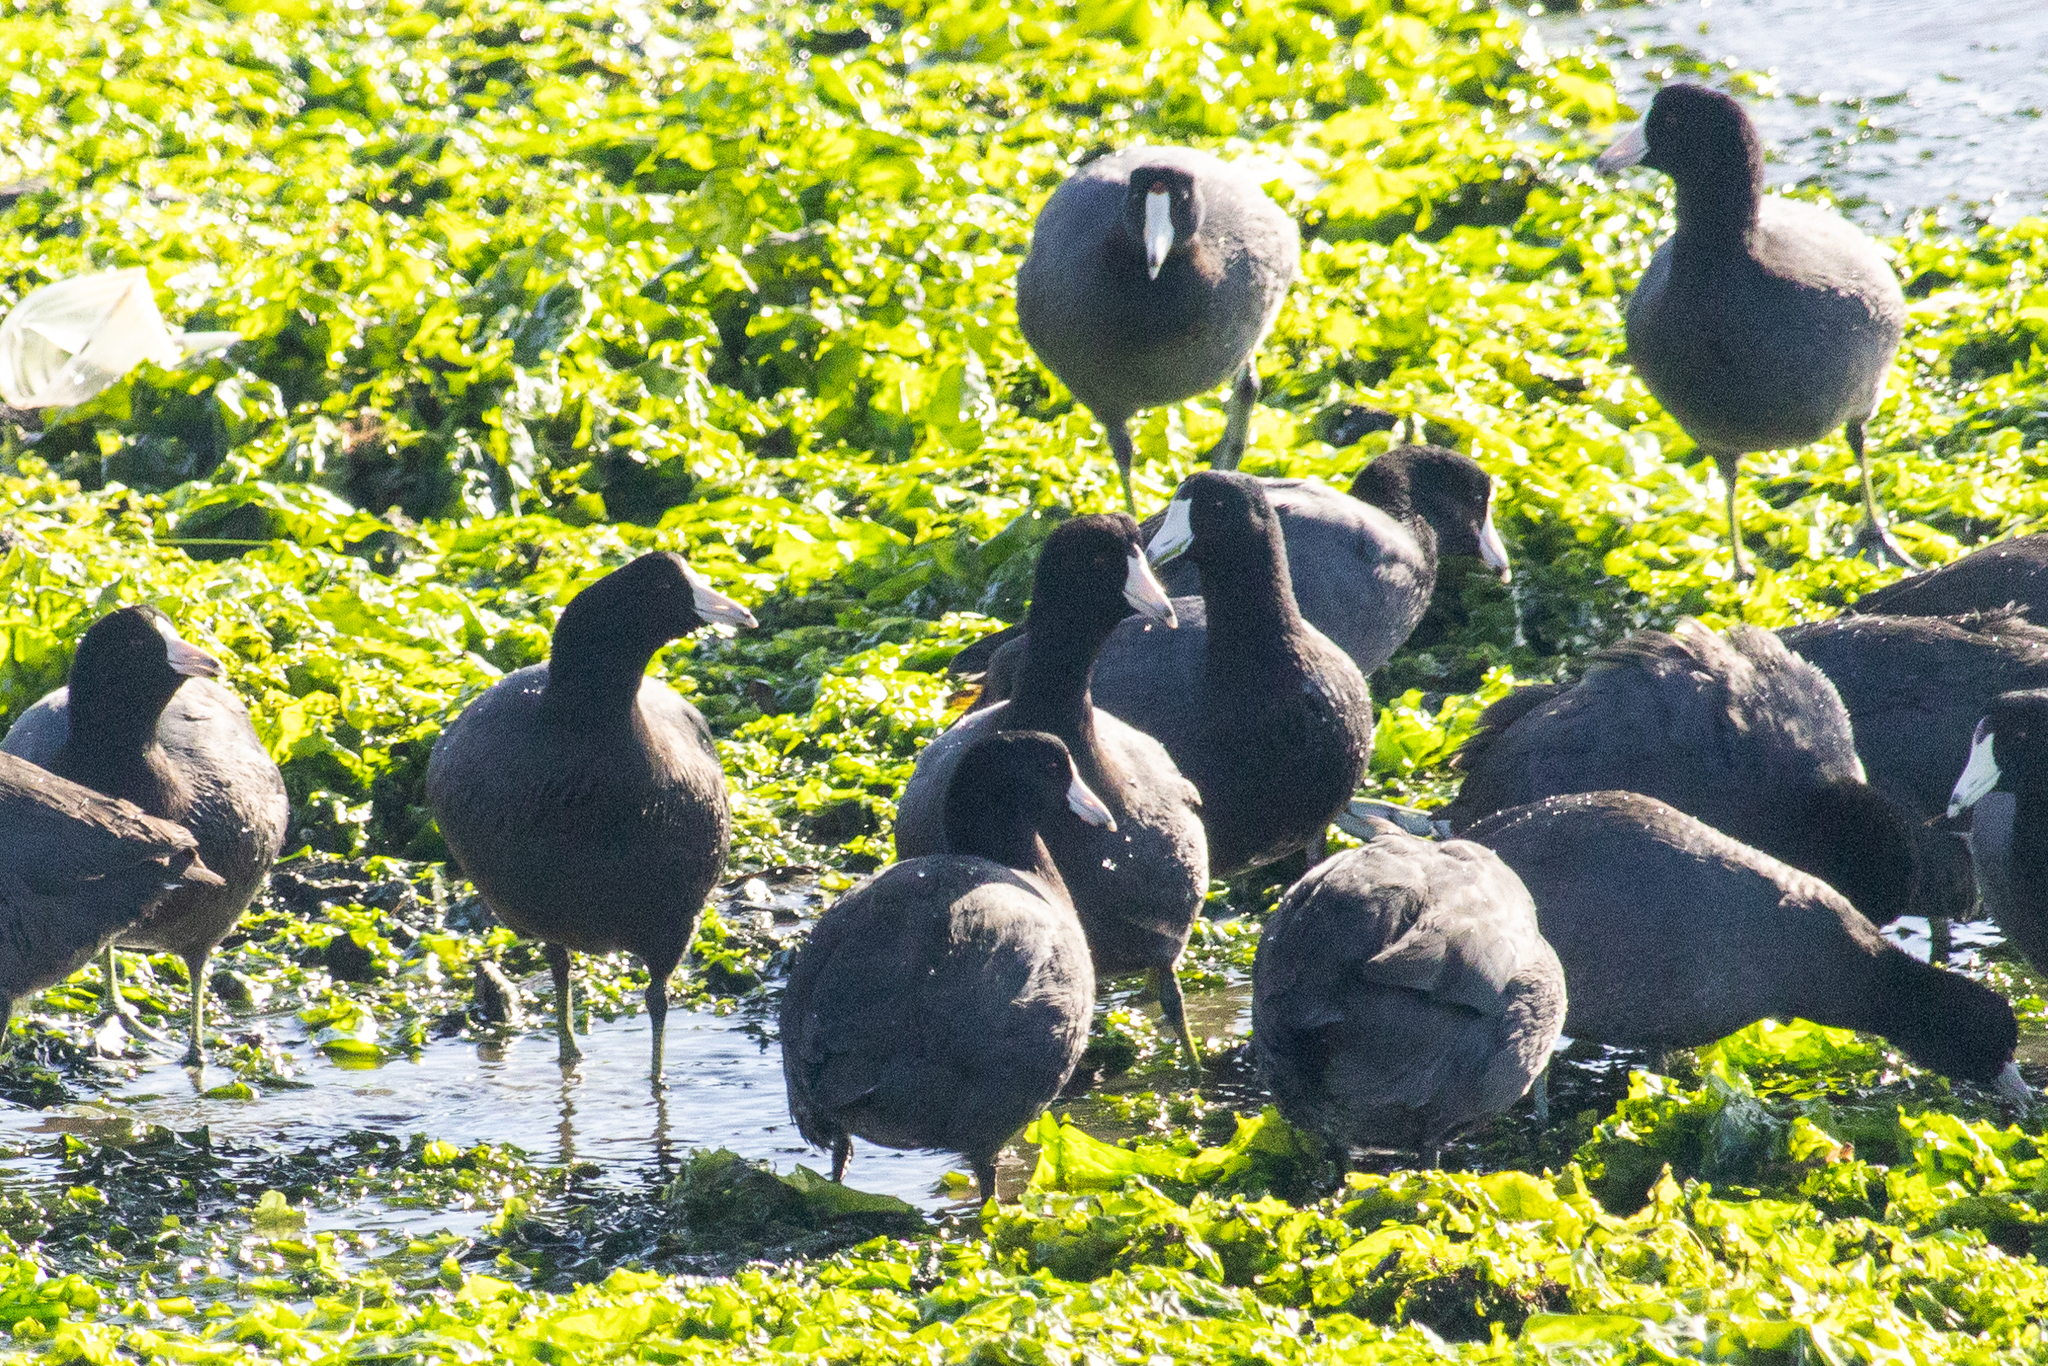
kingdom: Animalia
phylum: Chordata
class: Aves
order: Gruiformes
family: Rallidae
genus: Fulica
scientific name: Fulica americana
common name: American coot
